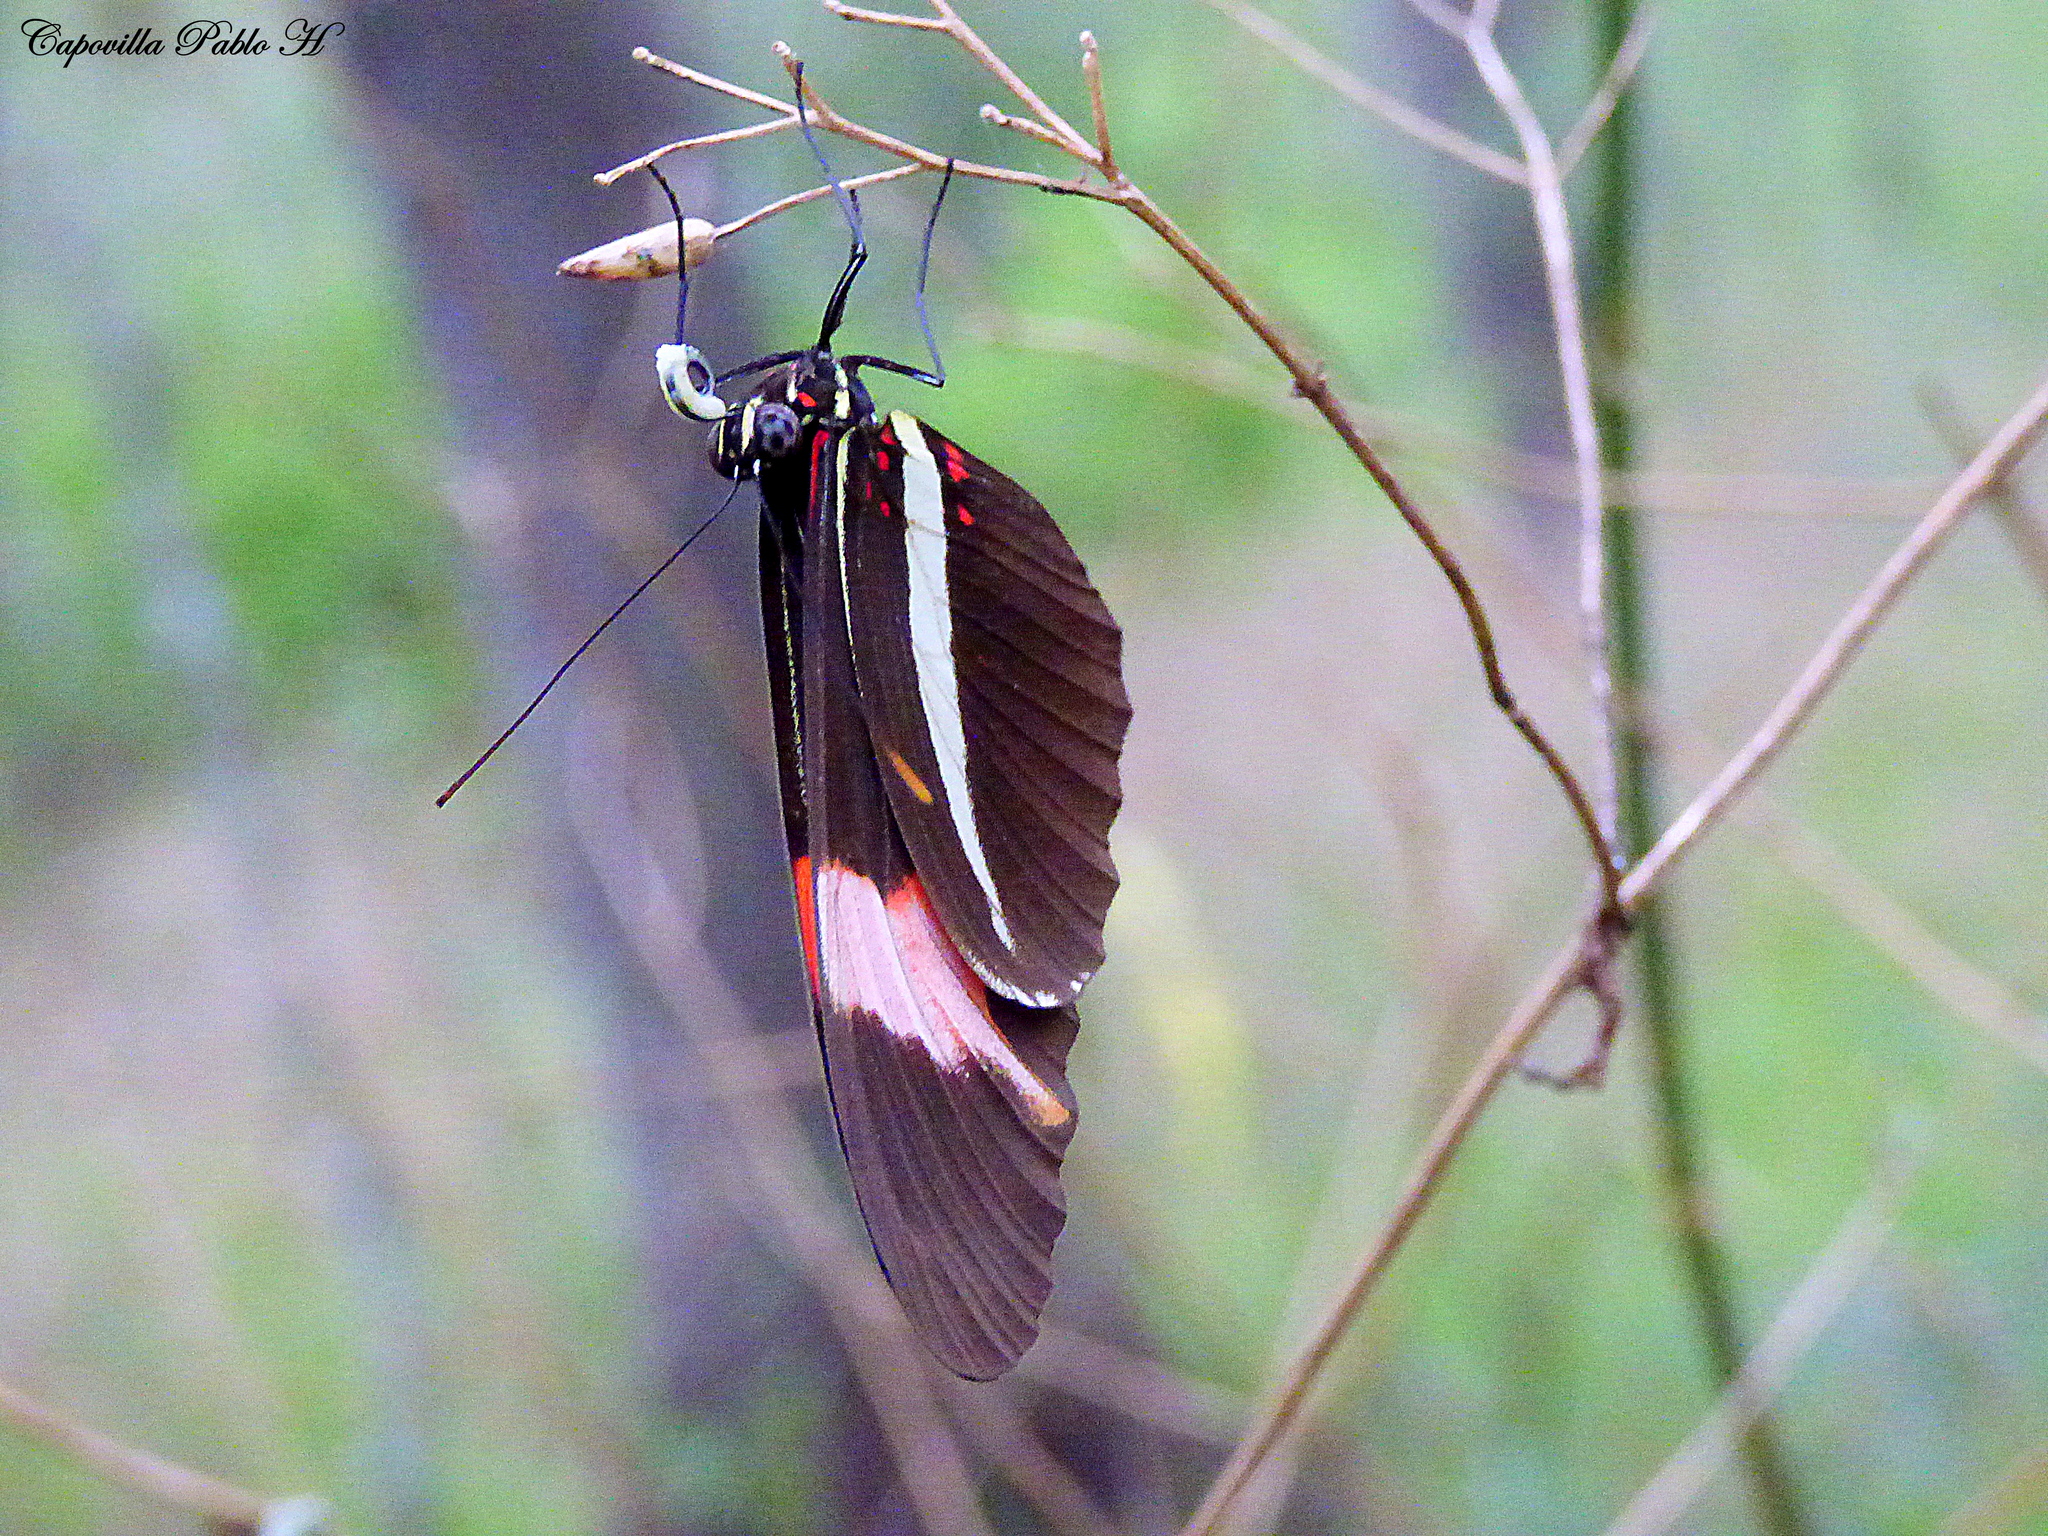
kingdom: Animalia
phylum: Arthropoda
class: Insecta
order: Lepidoptera
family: Nymphalidae
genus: Heliconius
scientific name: Heliconius erato
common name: Common patch longwing
